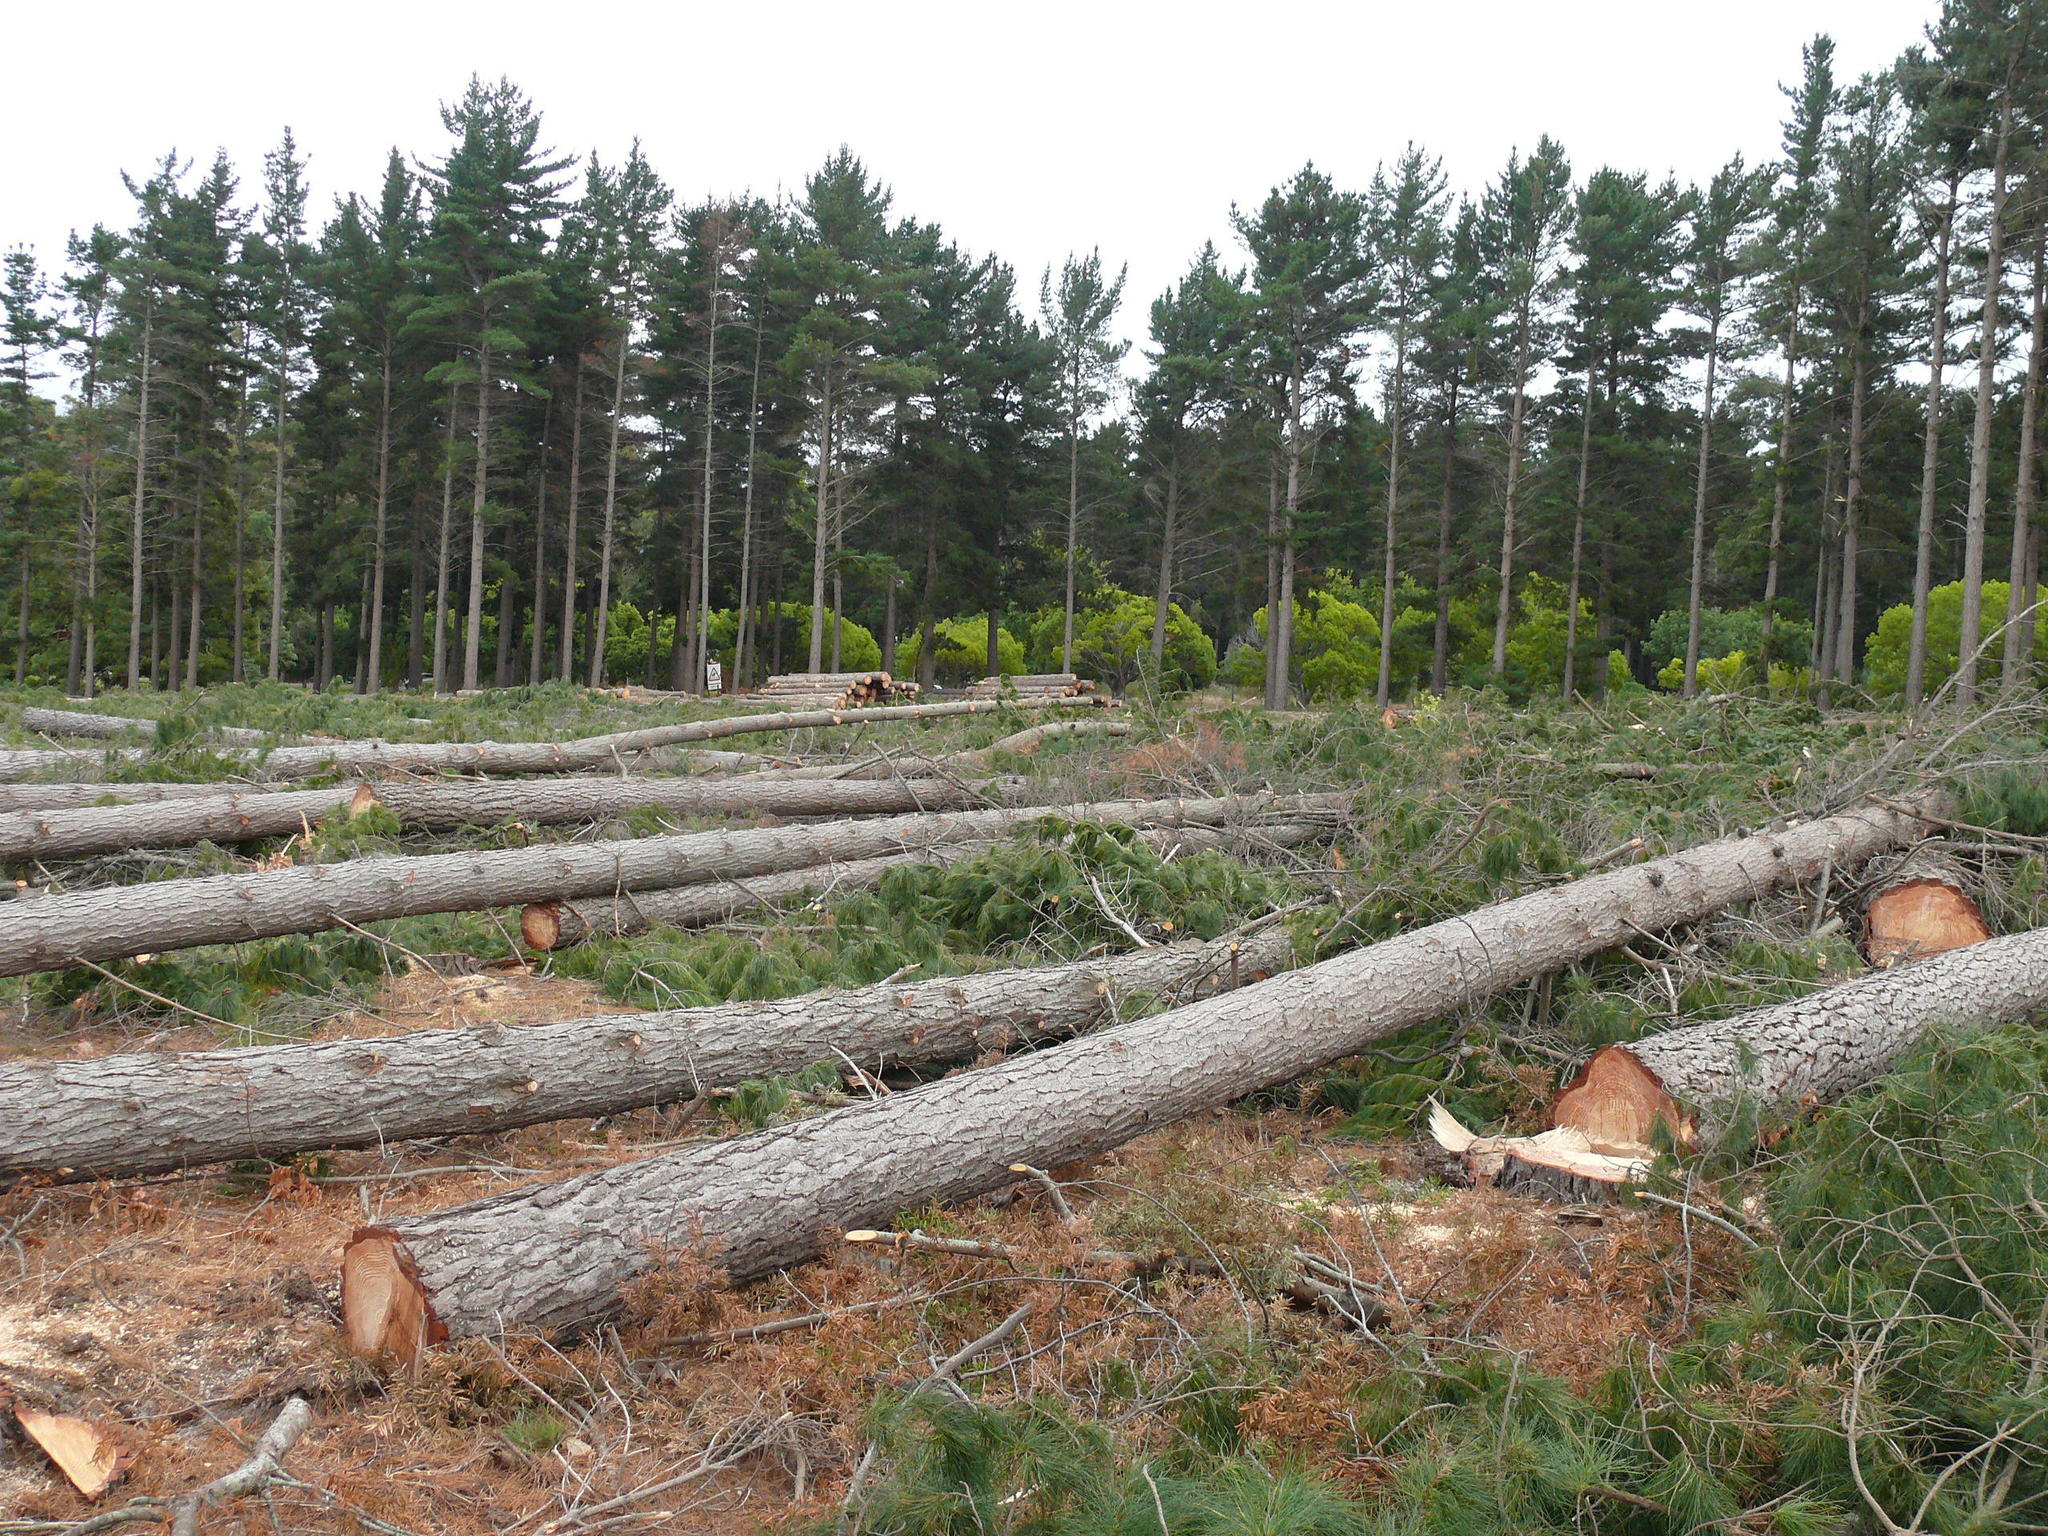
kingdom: Plantae
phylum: Tracheophyta
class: Pinopsida
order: Pinales
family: Pinaceae
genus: Pinus
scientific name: Pinus radiata
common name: Monterey pine
